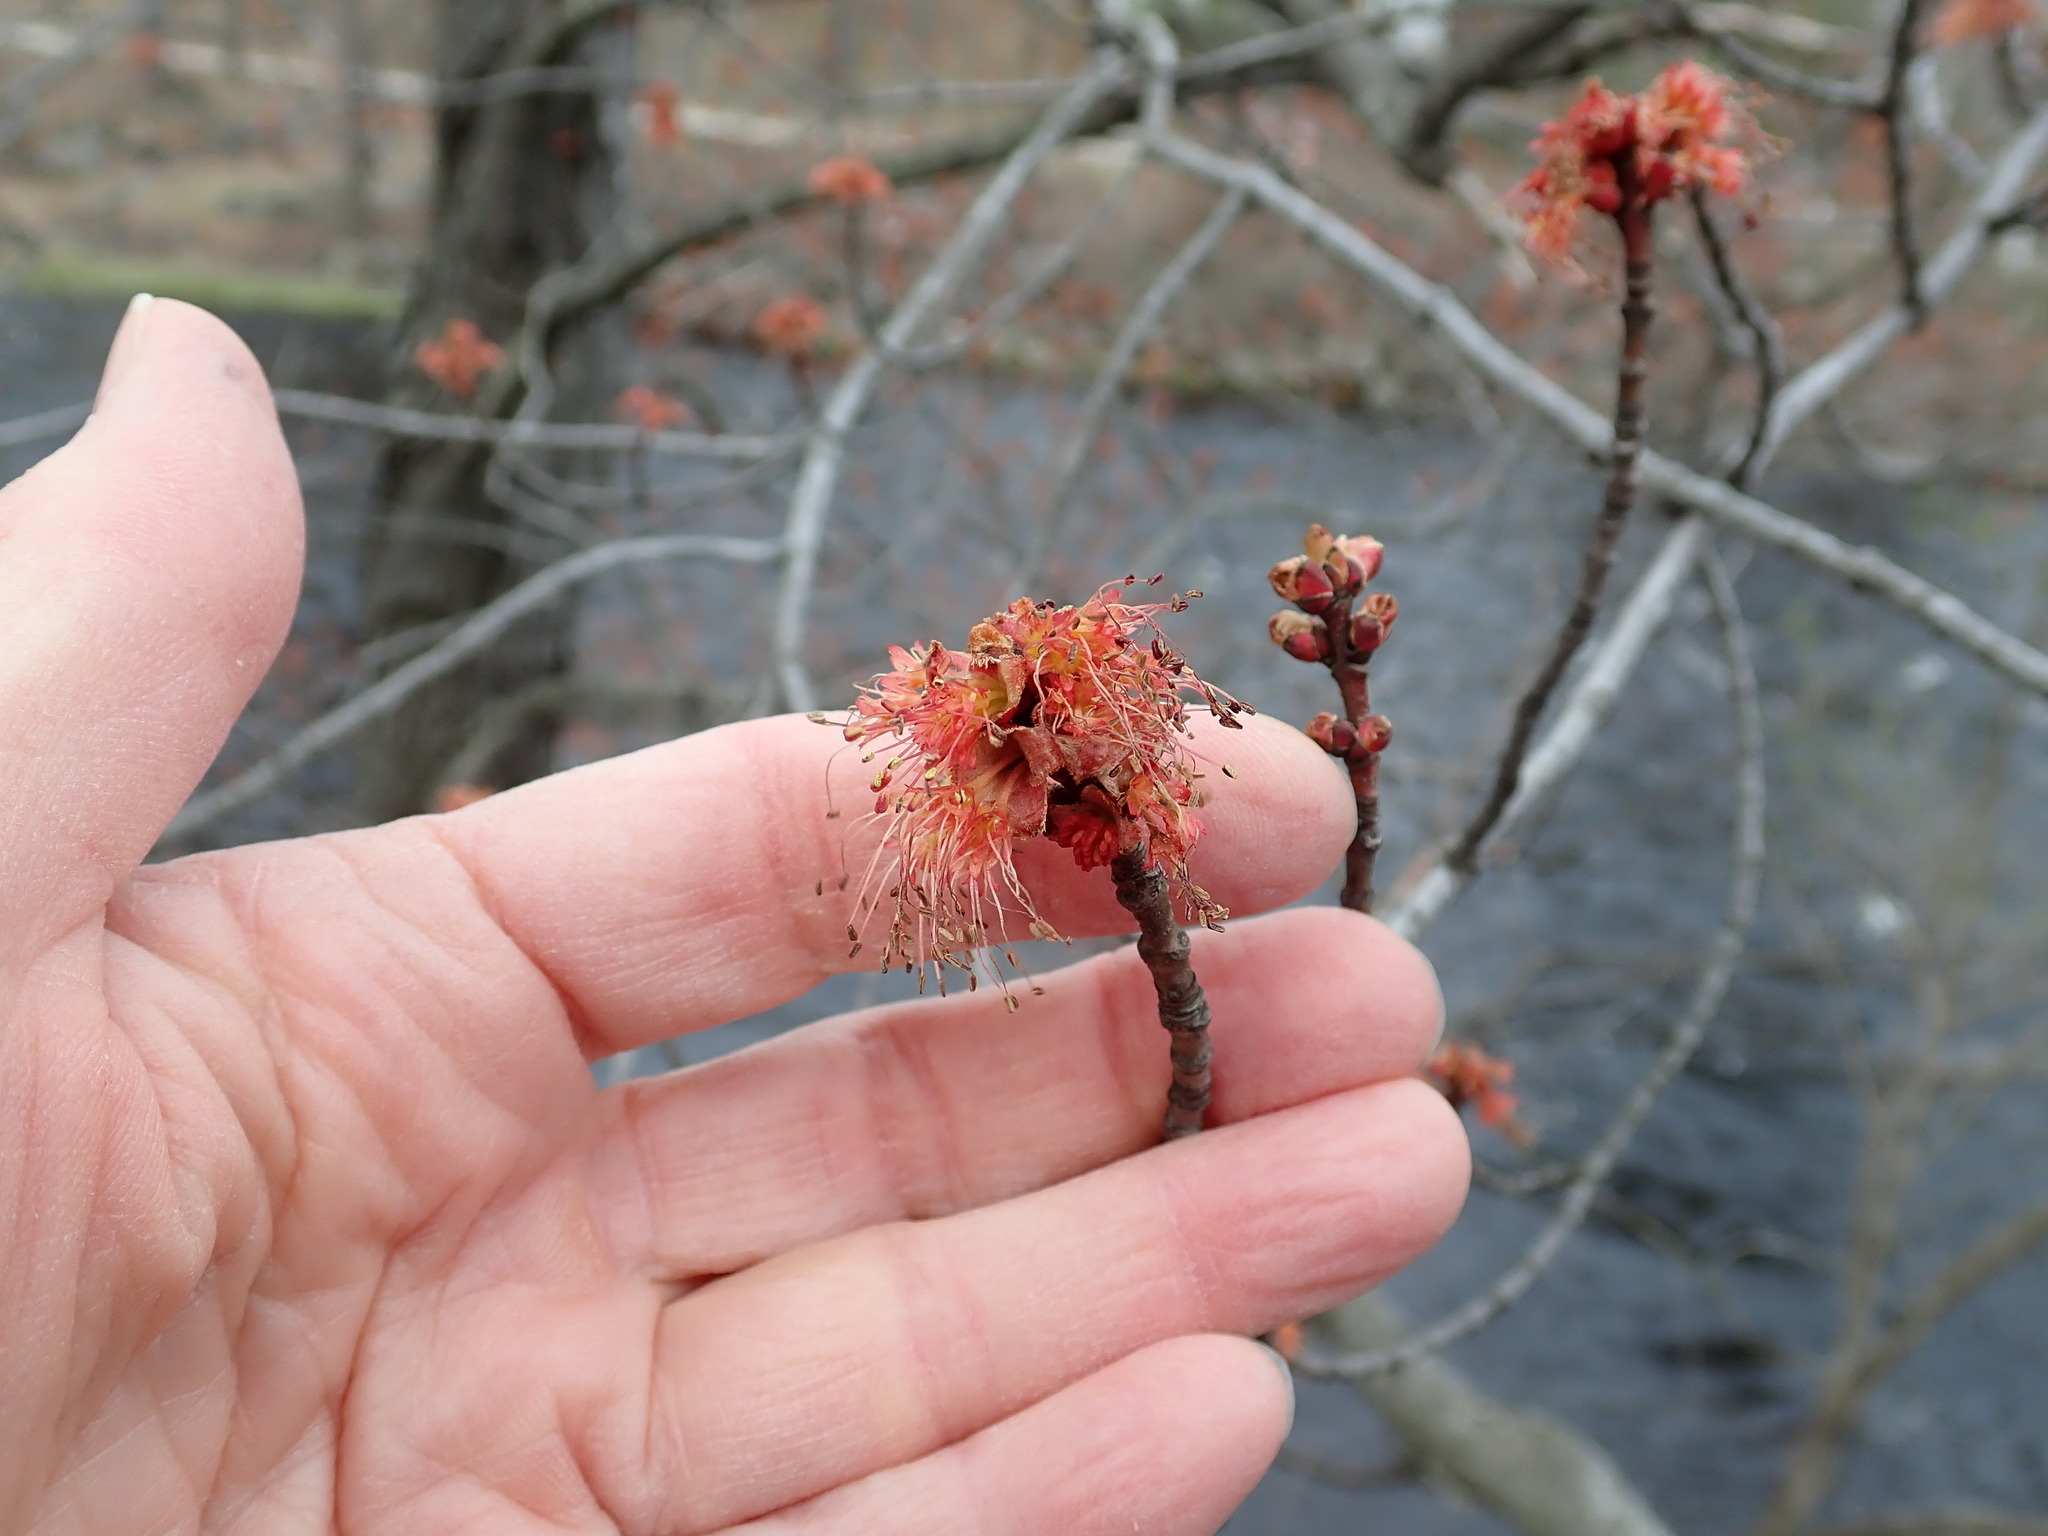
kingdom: Plantae
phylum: Tracheophyta
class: Magnoliopsida
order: Sapindales
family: Sapindaceae
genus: Acer
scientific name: Acer rubrum
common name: Red maple
